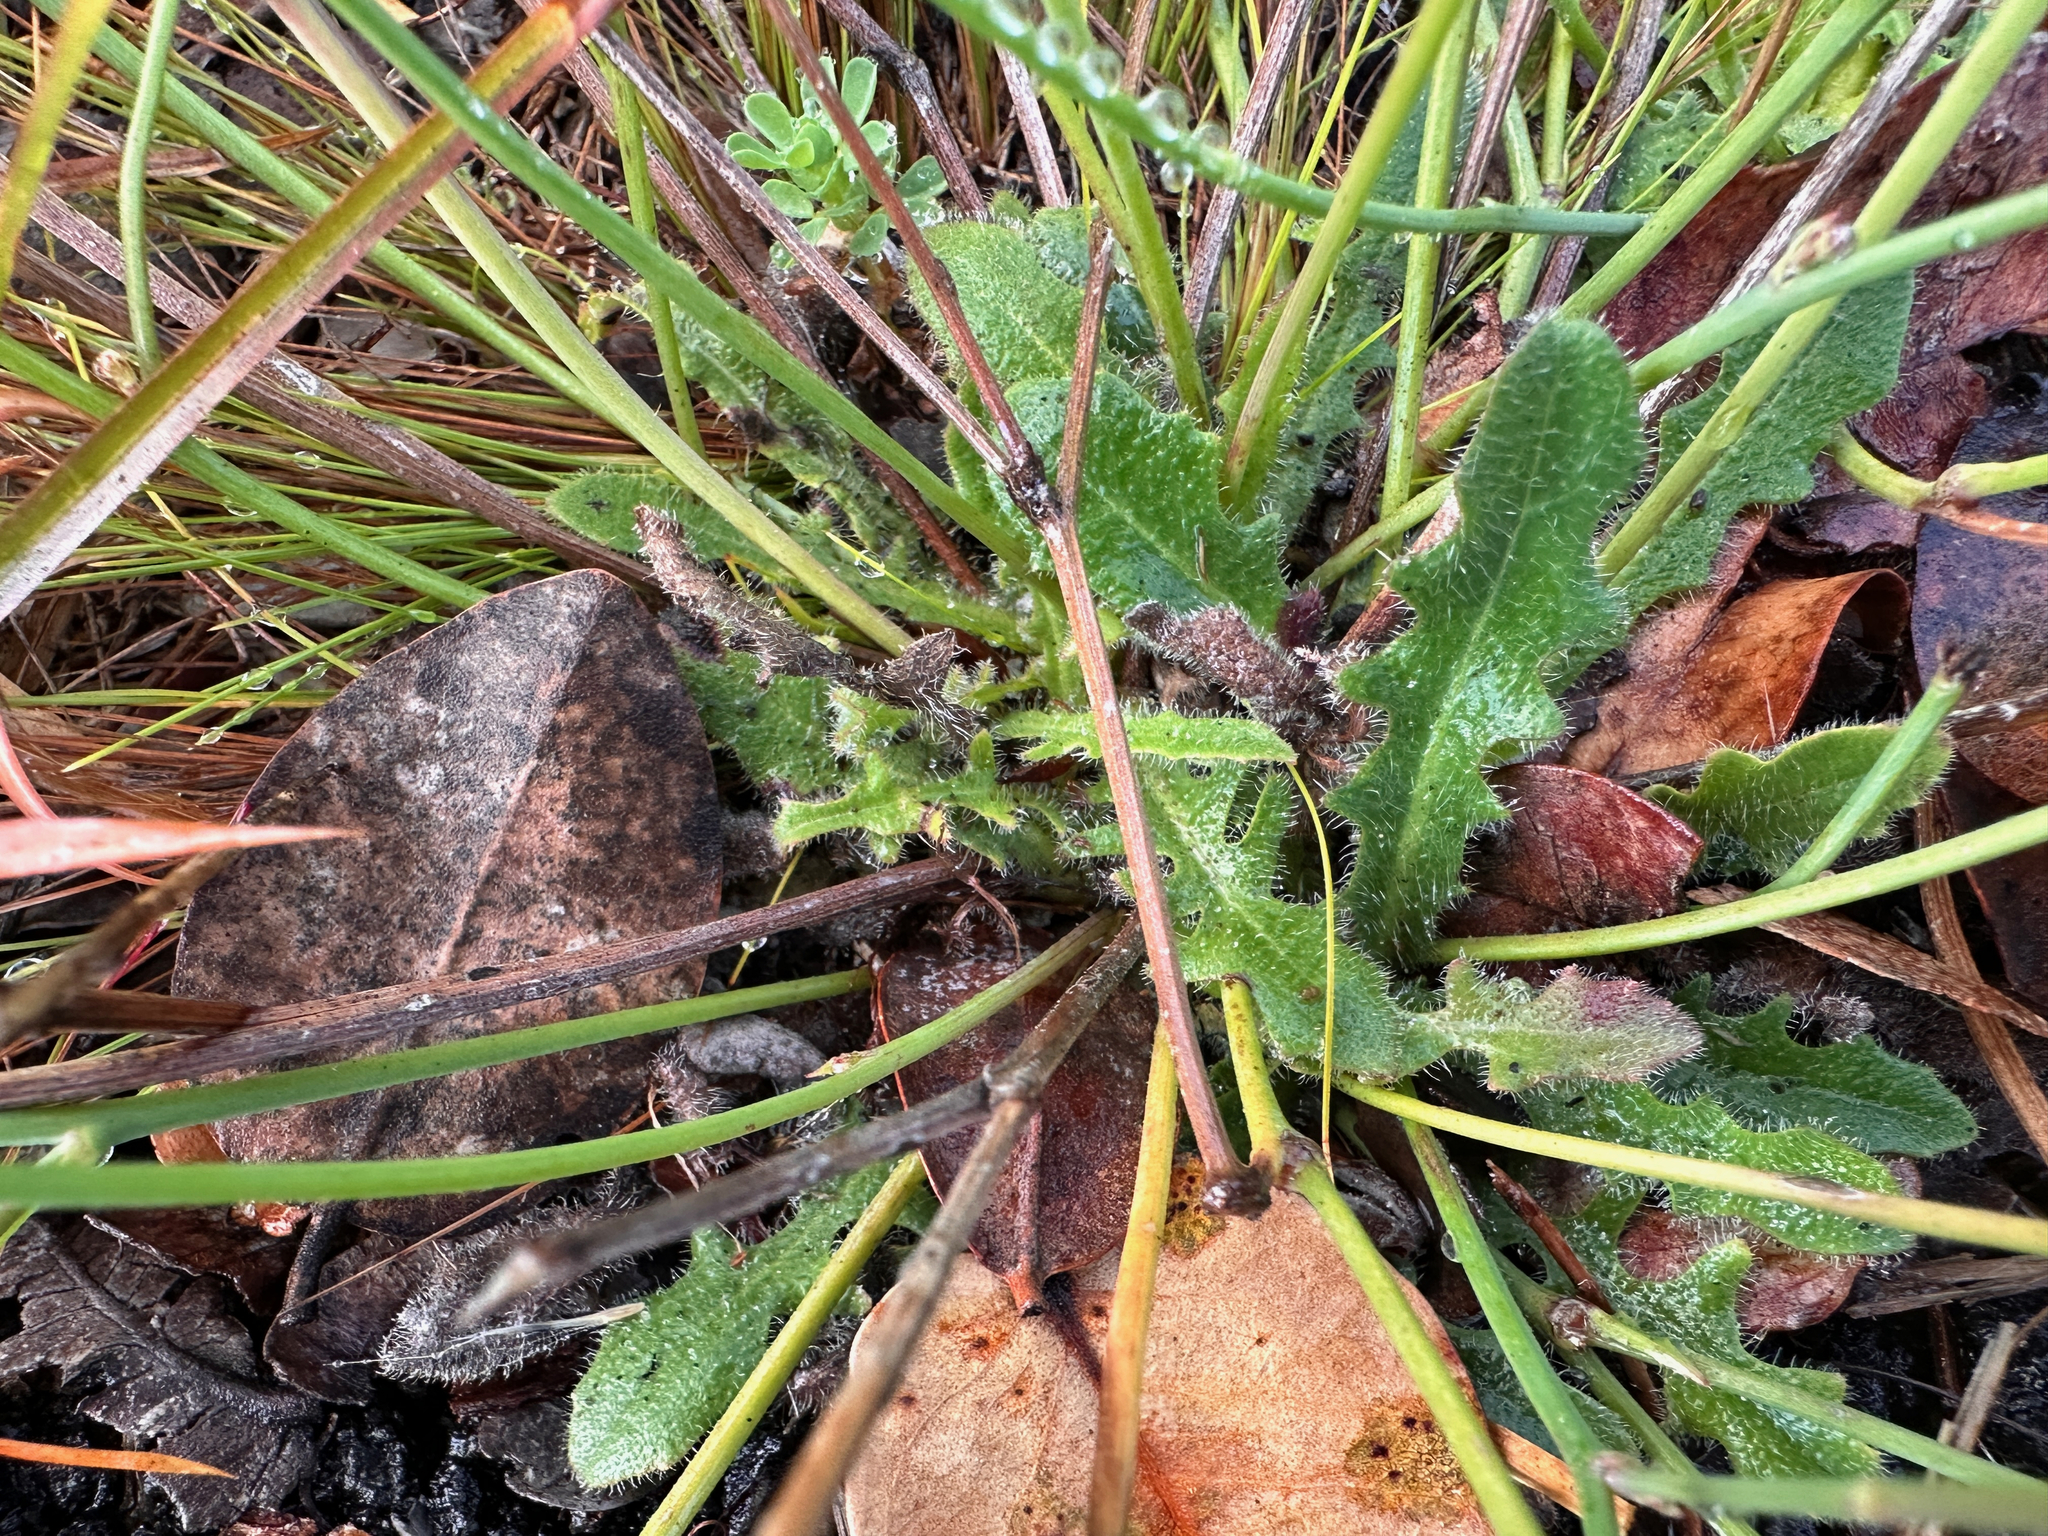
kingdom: Plantae
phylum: Tracheophyta
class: Magnoliopsida
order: Asterales
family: Asteraceae
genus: Hypochaeris
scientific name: Hypochaeris radicata
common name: Flatweed
